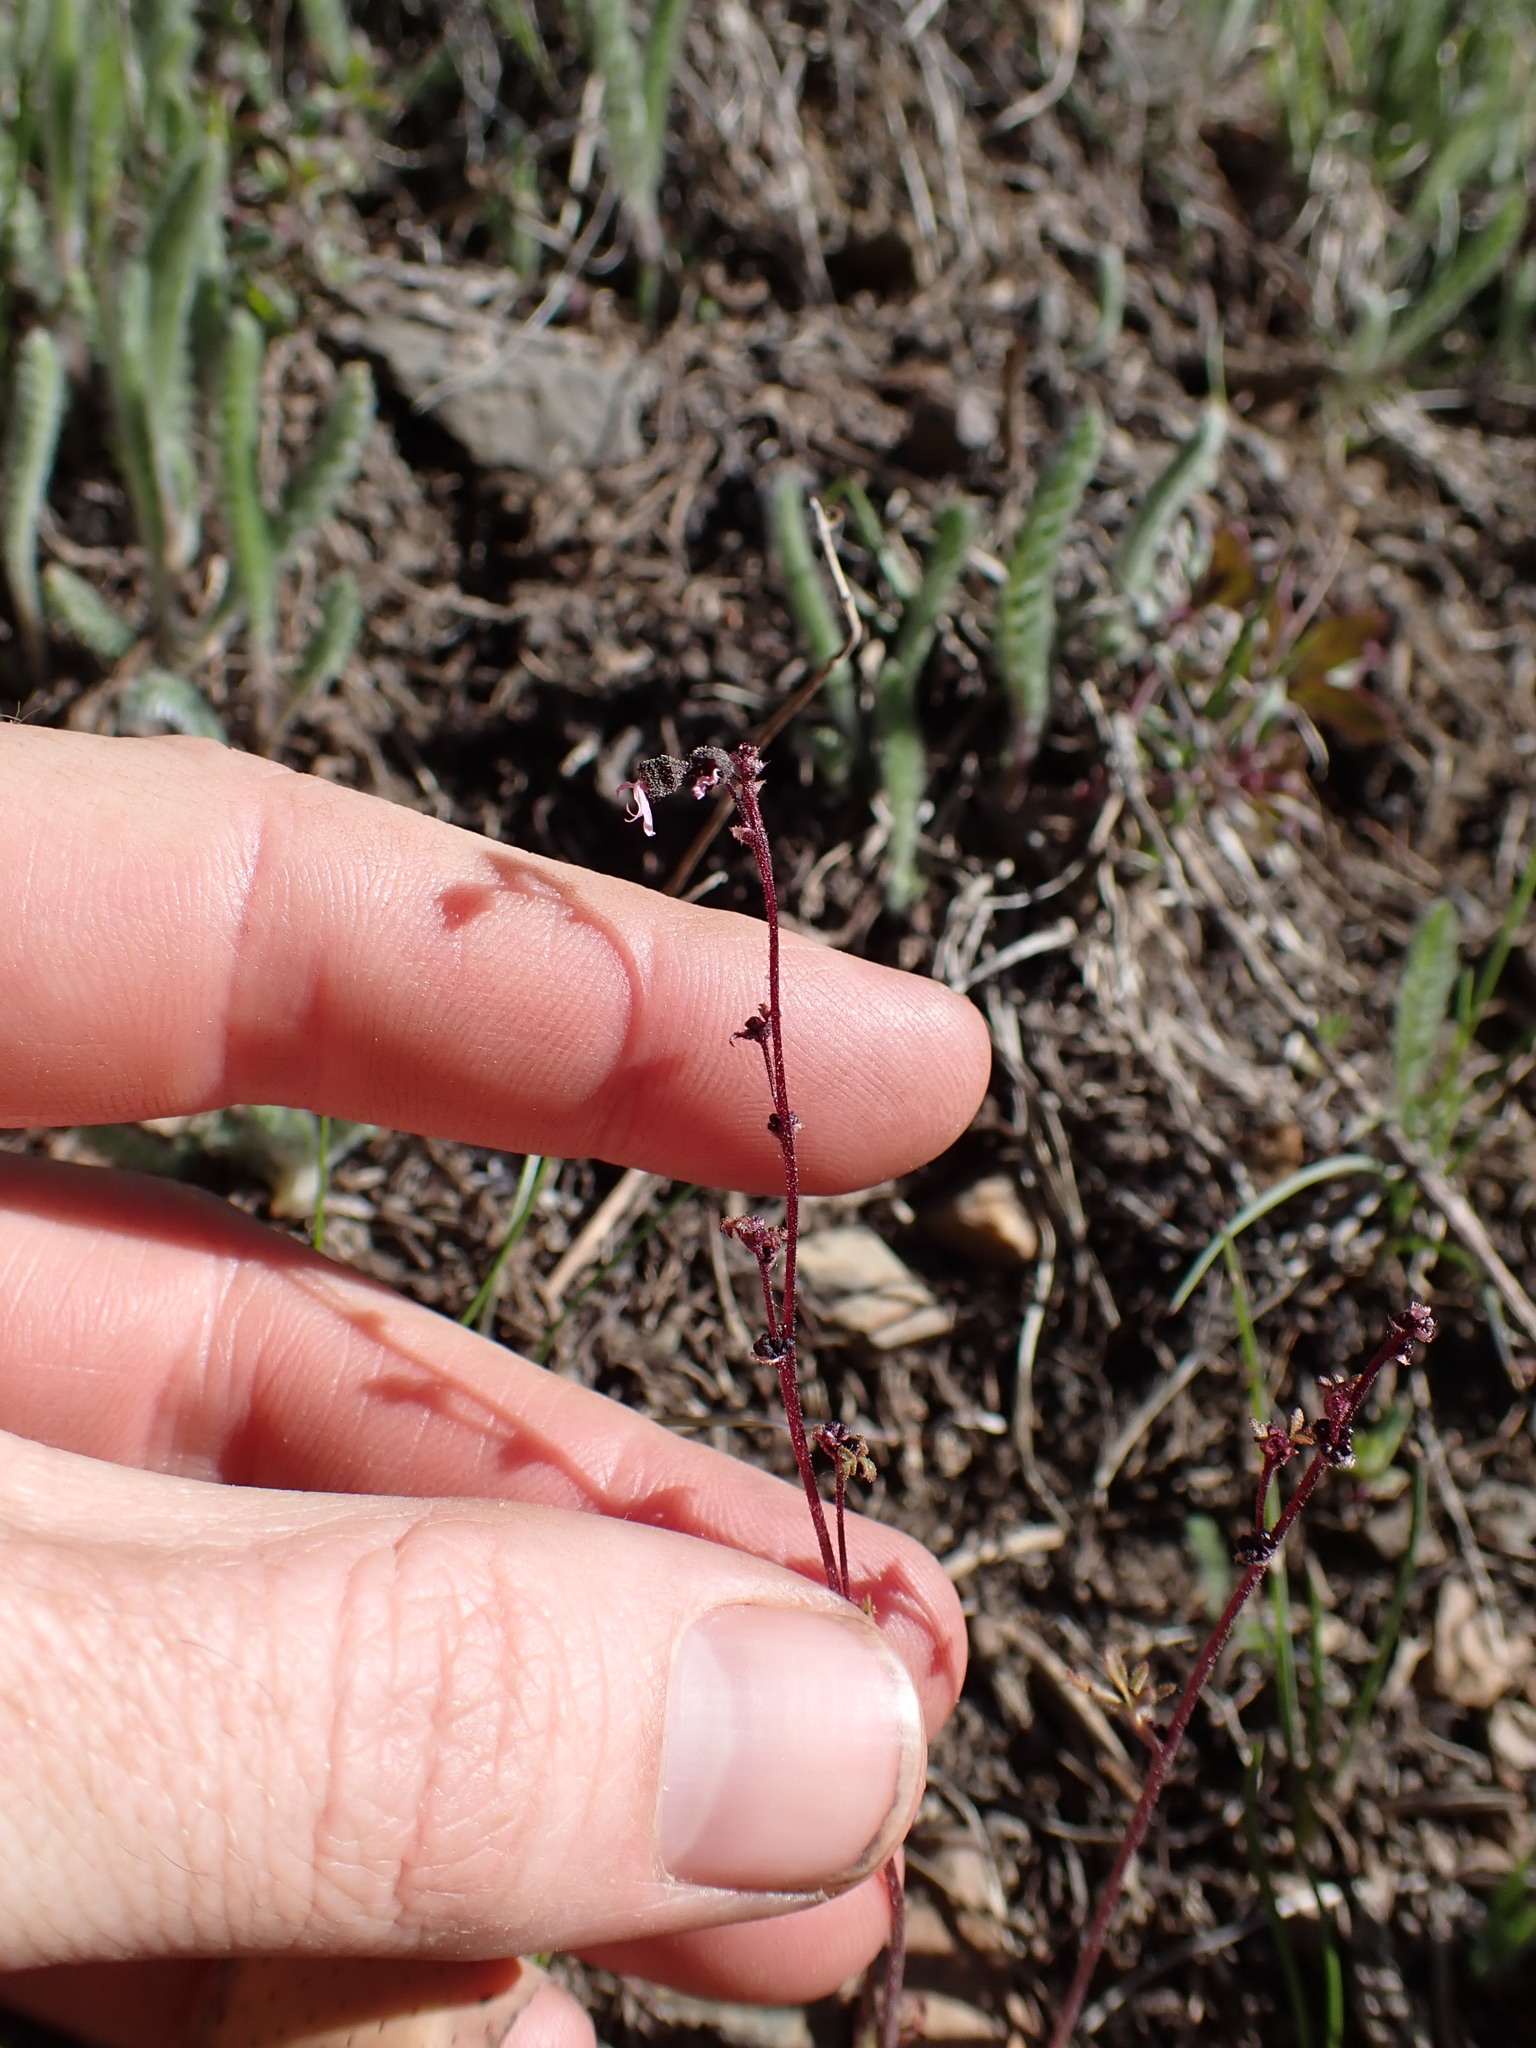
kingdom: Plantae
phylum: Tracheophyta
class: Magnoliopsida
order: Saxifragales
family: Saxifragaceae
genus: Lithophragma
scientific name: Lithophragma glabrum
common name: Bulbous prairie-star
